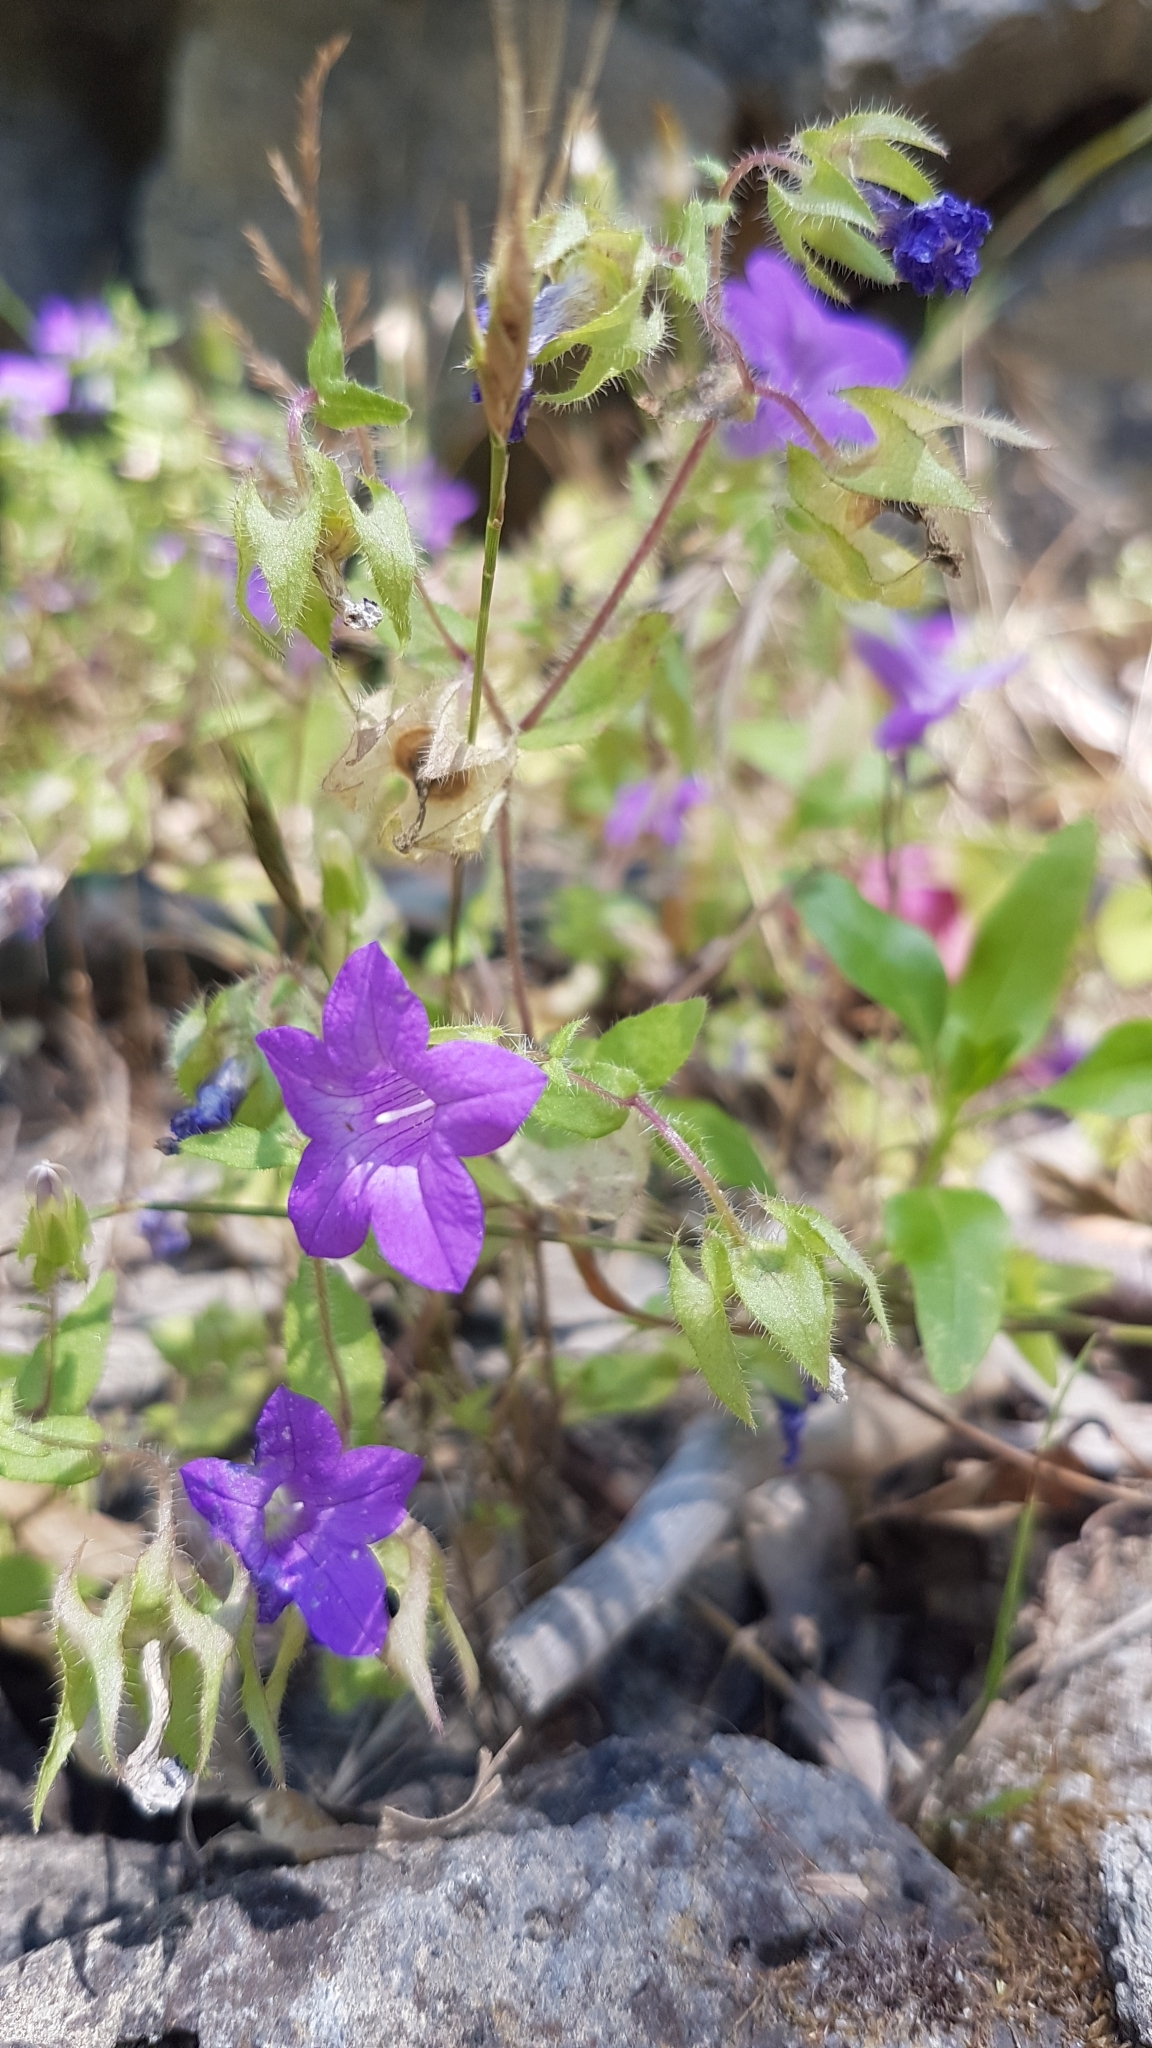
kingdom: Plantae
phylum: Tracheophyta
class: Magnoliopsida
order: Asterales
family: Campanulaceae
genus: Campanula
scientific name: Campanula dichotoma
